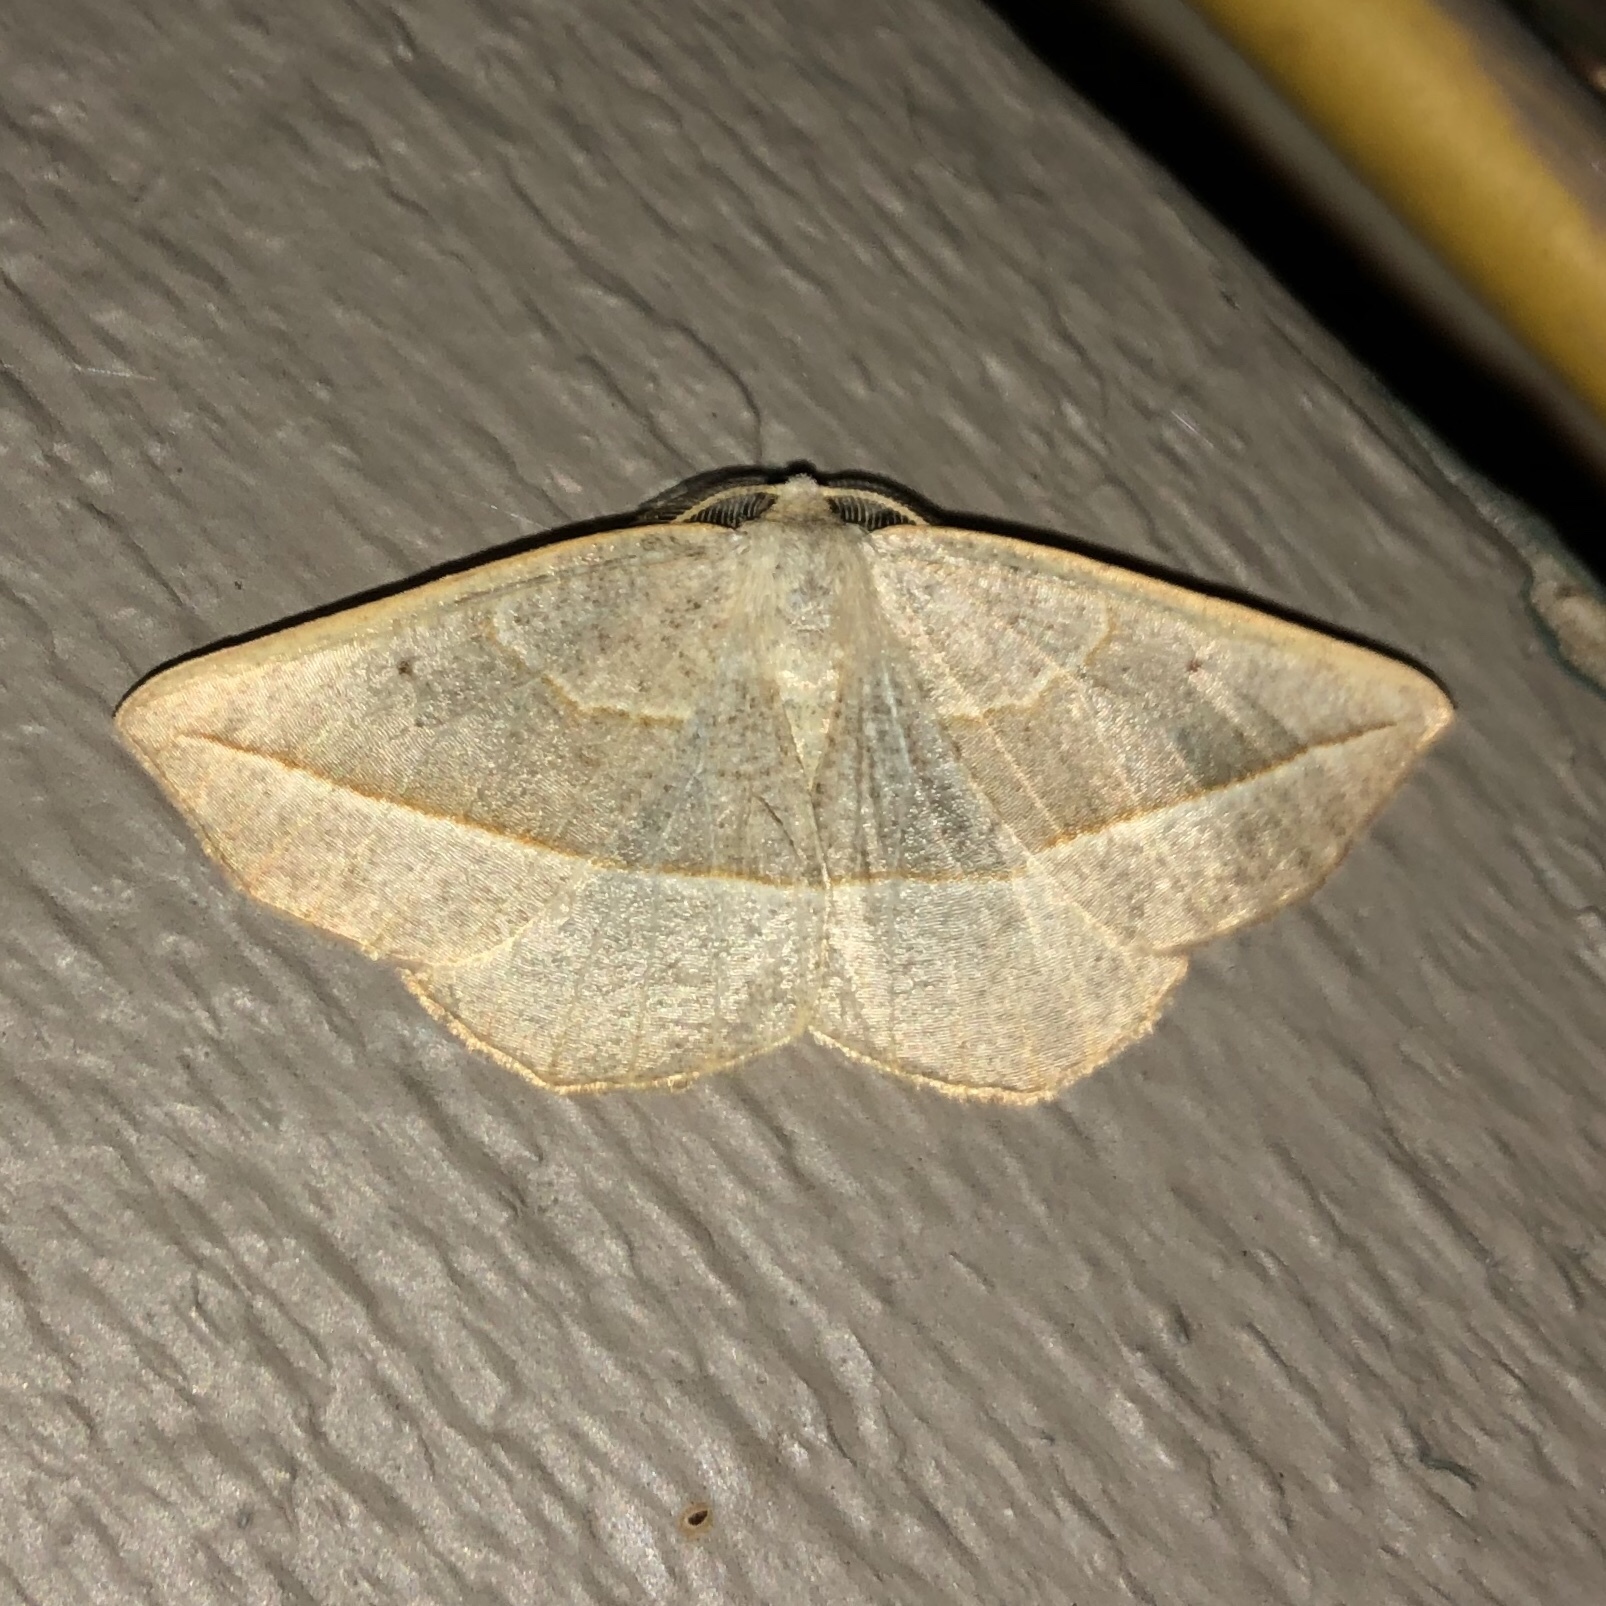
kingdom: Animalia
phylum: Arthropoda
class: Insecta
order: Lepidoptera
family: Geometridae
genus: Eusarca
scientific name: Eusarca confusaria
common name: Confused eusarca
